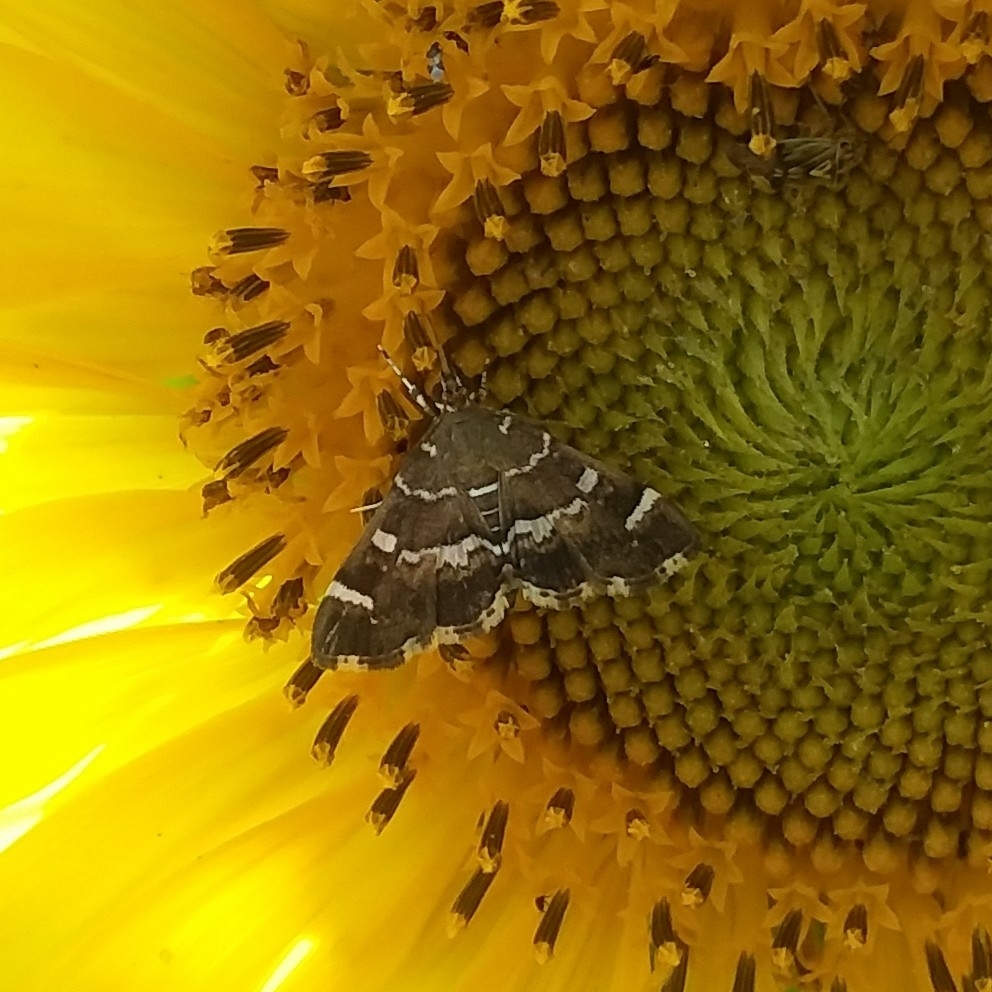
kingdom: Animalia
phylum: Arthropoda
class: Insecta
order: Lepidoptera
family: Crambidae
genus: Hymenia
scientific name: Hymenia perspectalis
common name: Spotted beet webworm
